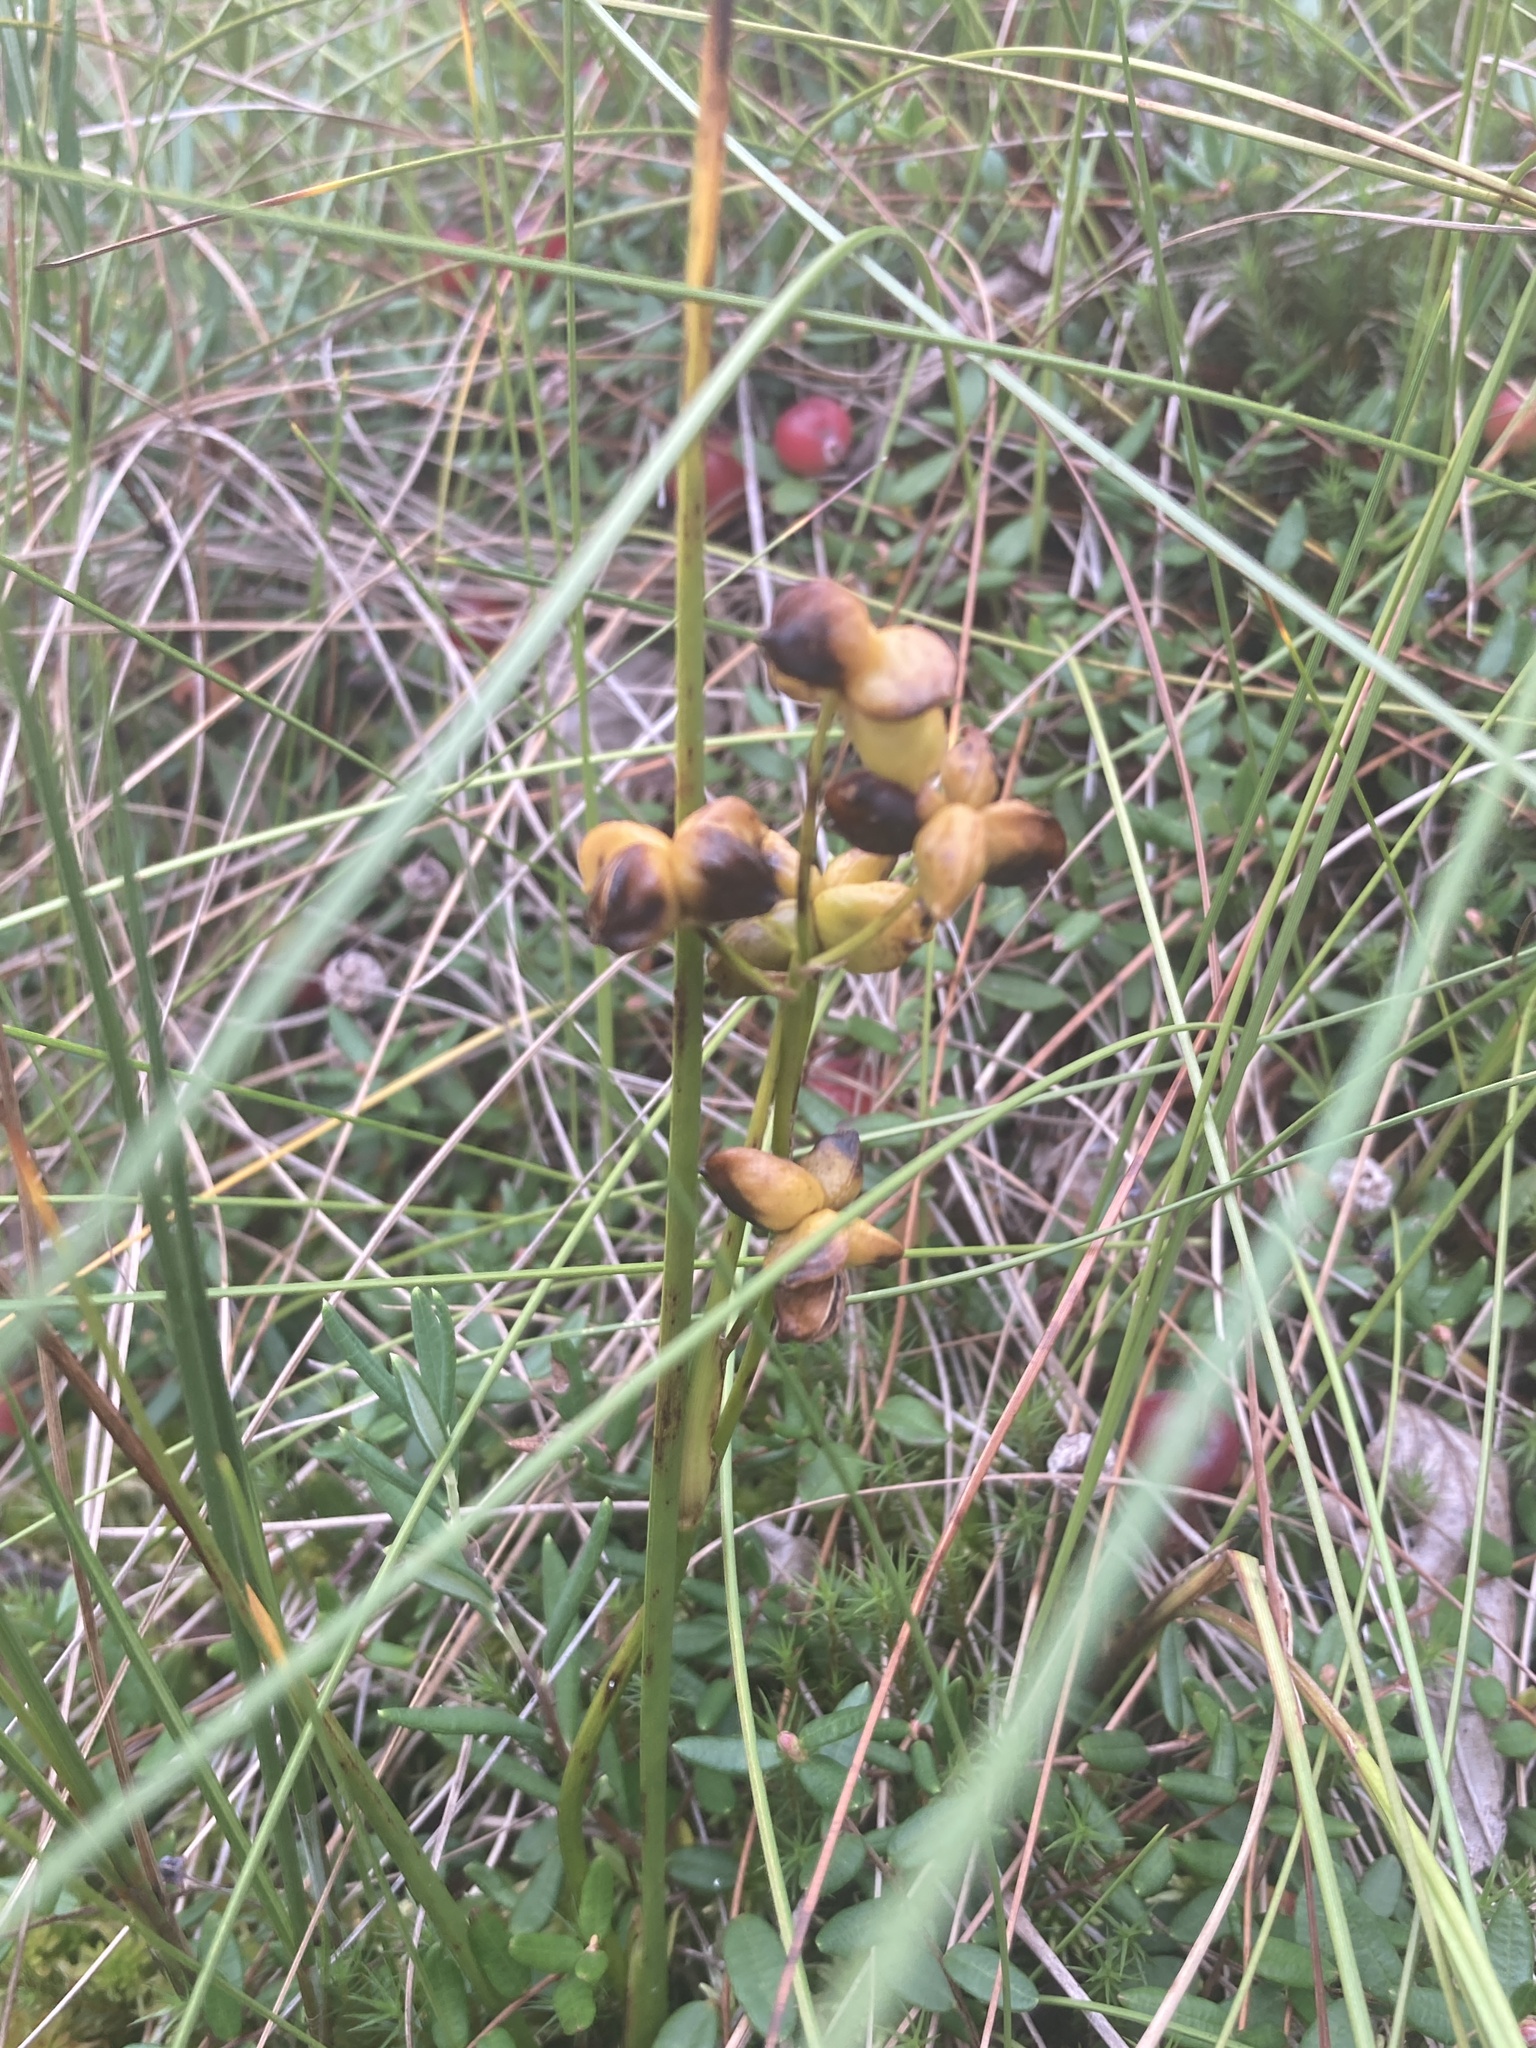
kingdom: Plantae
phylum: Tracheophyta
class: Liliopsida
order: Alismatales
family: Scheuchzeriaceae
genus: Scheuchzeria
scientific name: Scheuchzeria palustris
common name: Rannoch-rush
